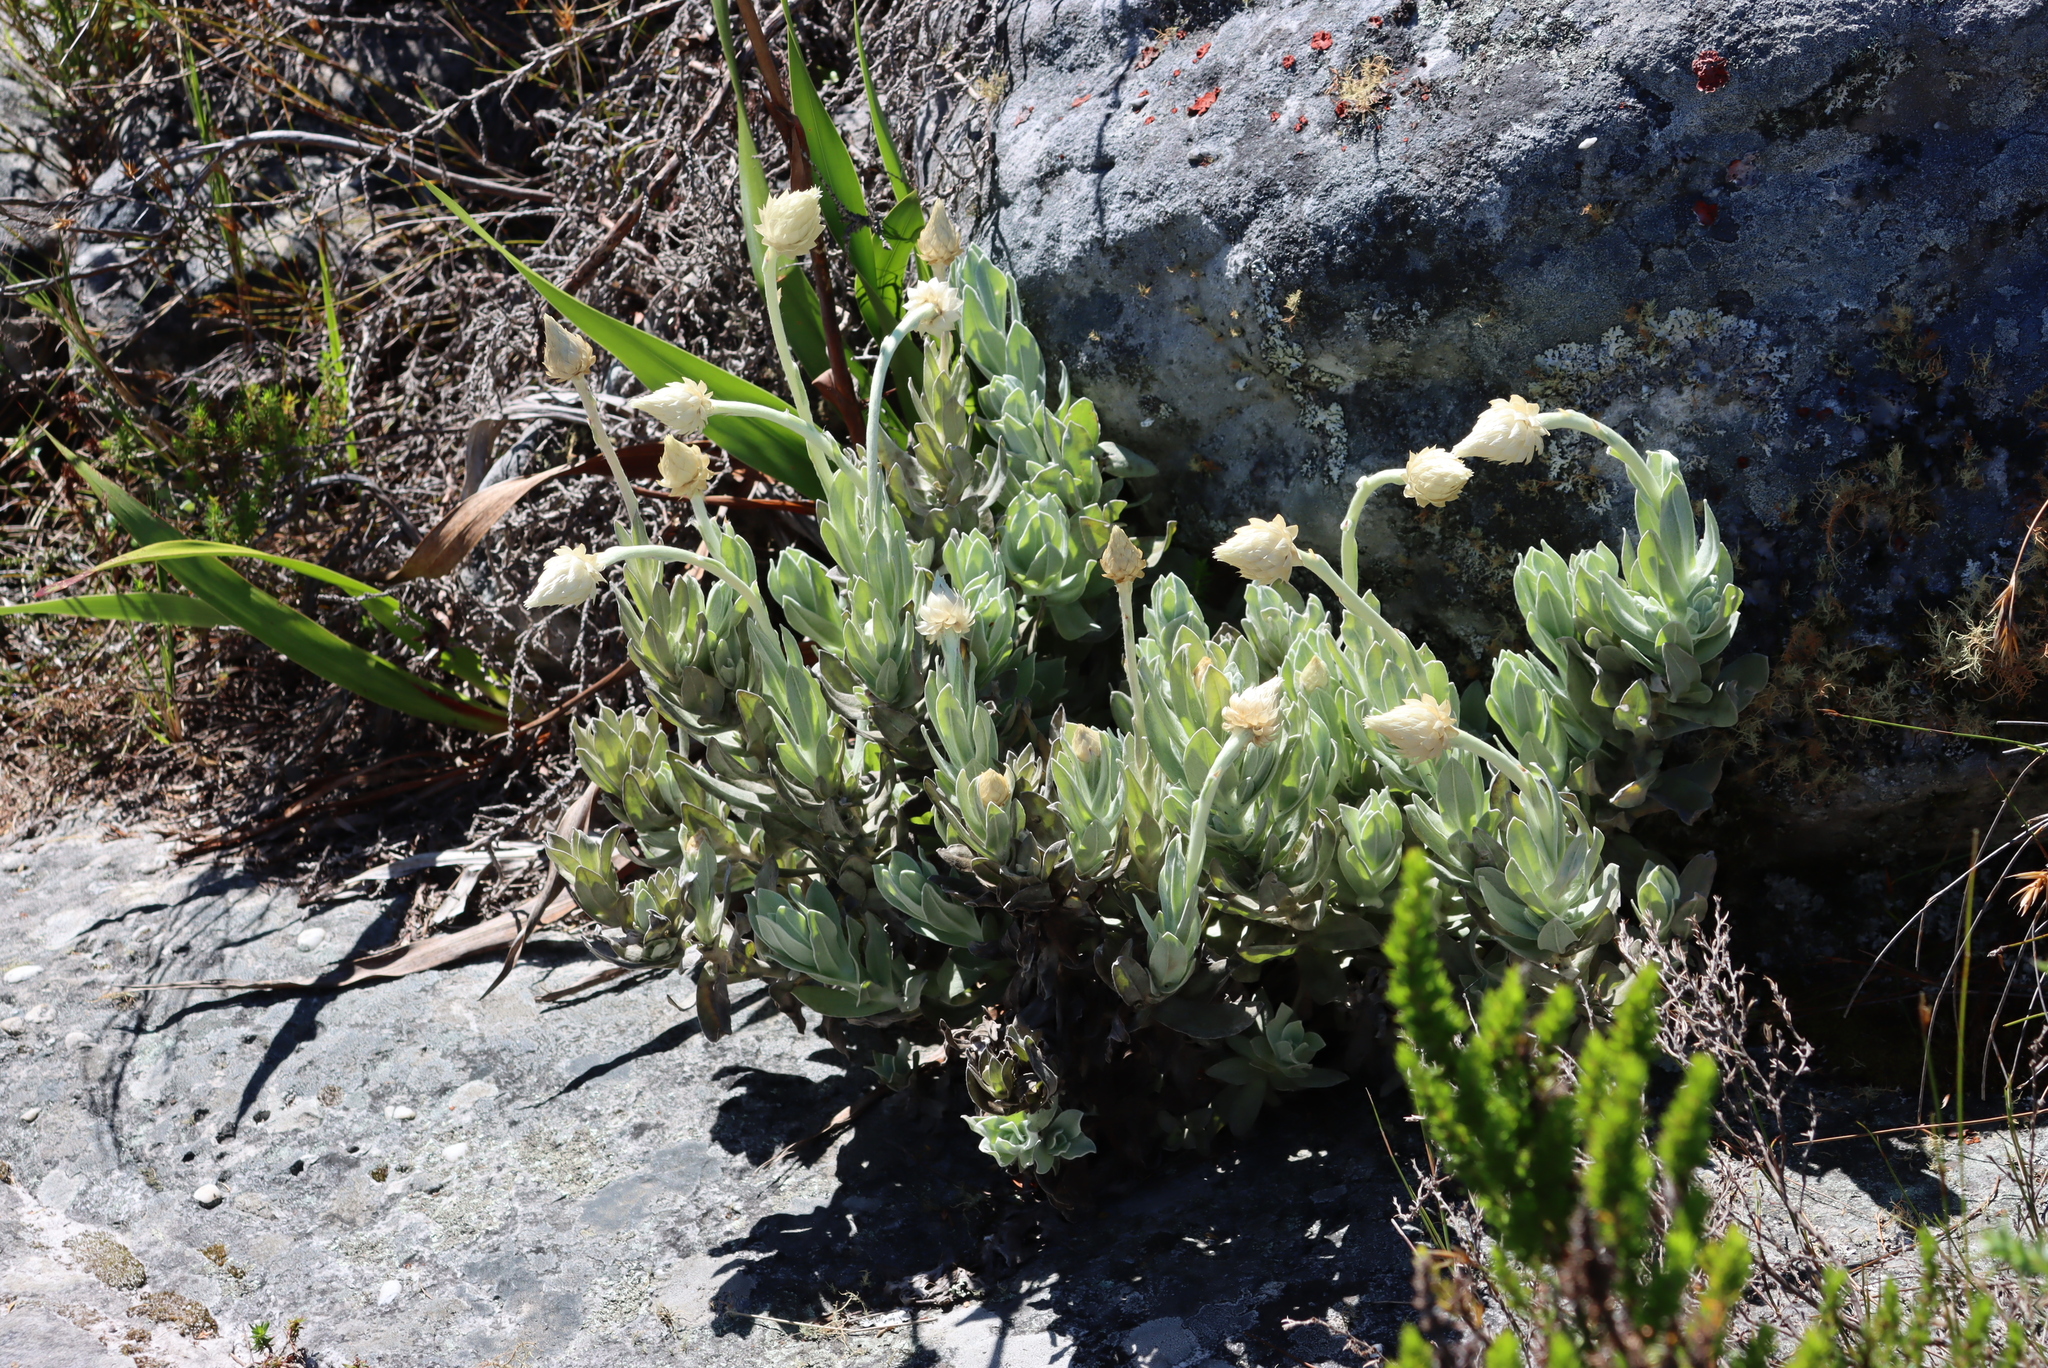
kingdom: Plantae
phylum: Tracheophyta
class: Magnoliopsida
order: Asterales
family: Asteraceae
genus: Syncarpha
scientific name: Syncarpha speciosissima
